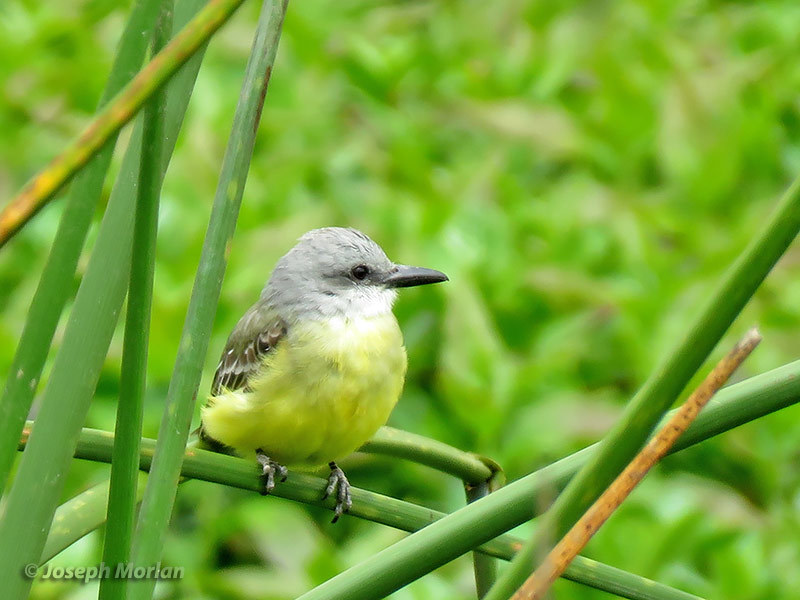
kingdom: Animalia
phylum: Chordata
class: Aves
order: Passeriformes
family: Tyrannidae
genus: Tyrannus
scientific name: Tyrannus melancholicus
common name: Tropical kingbird
